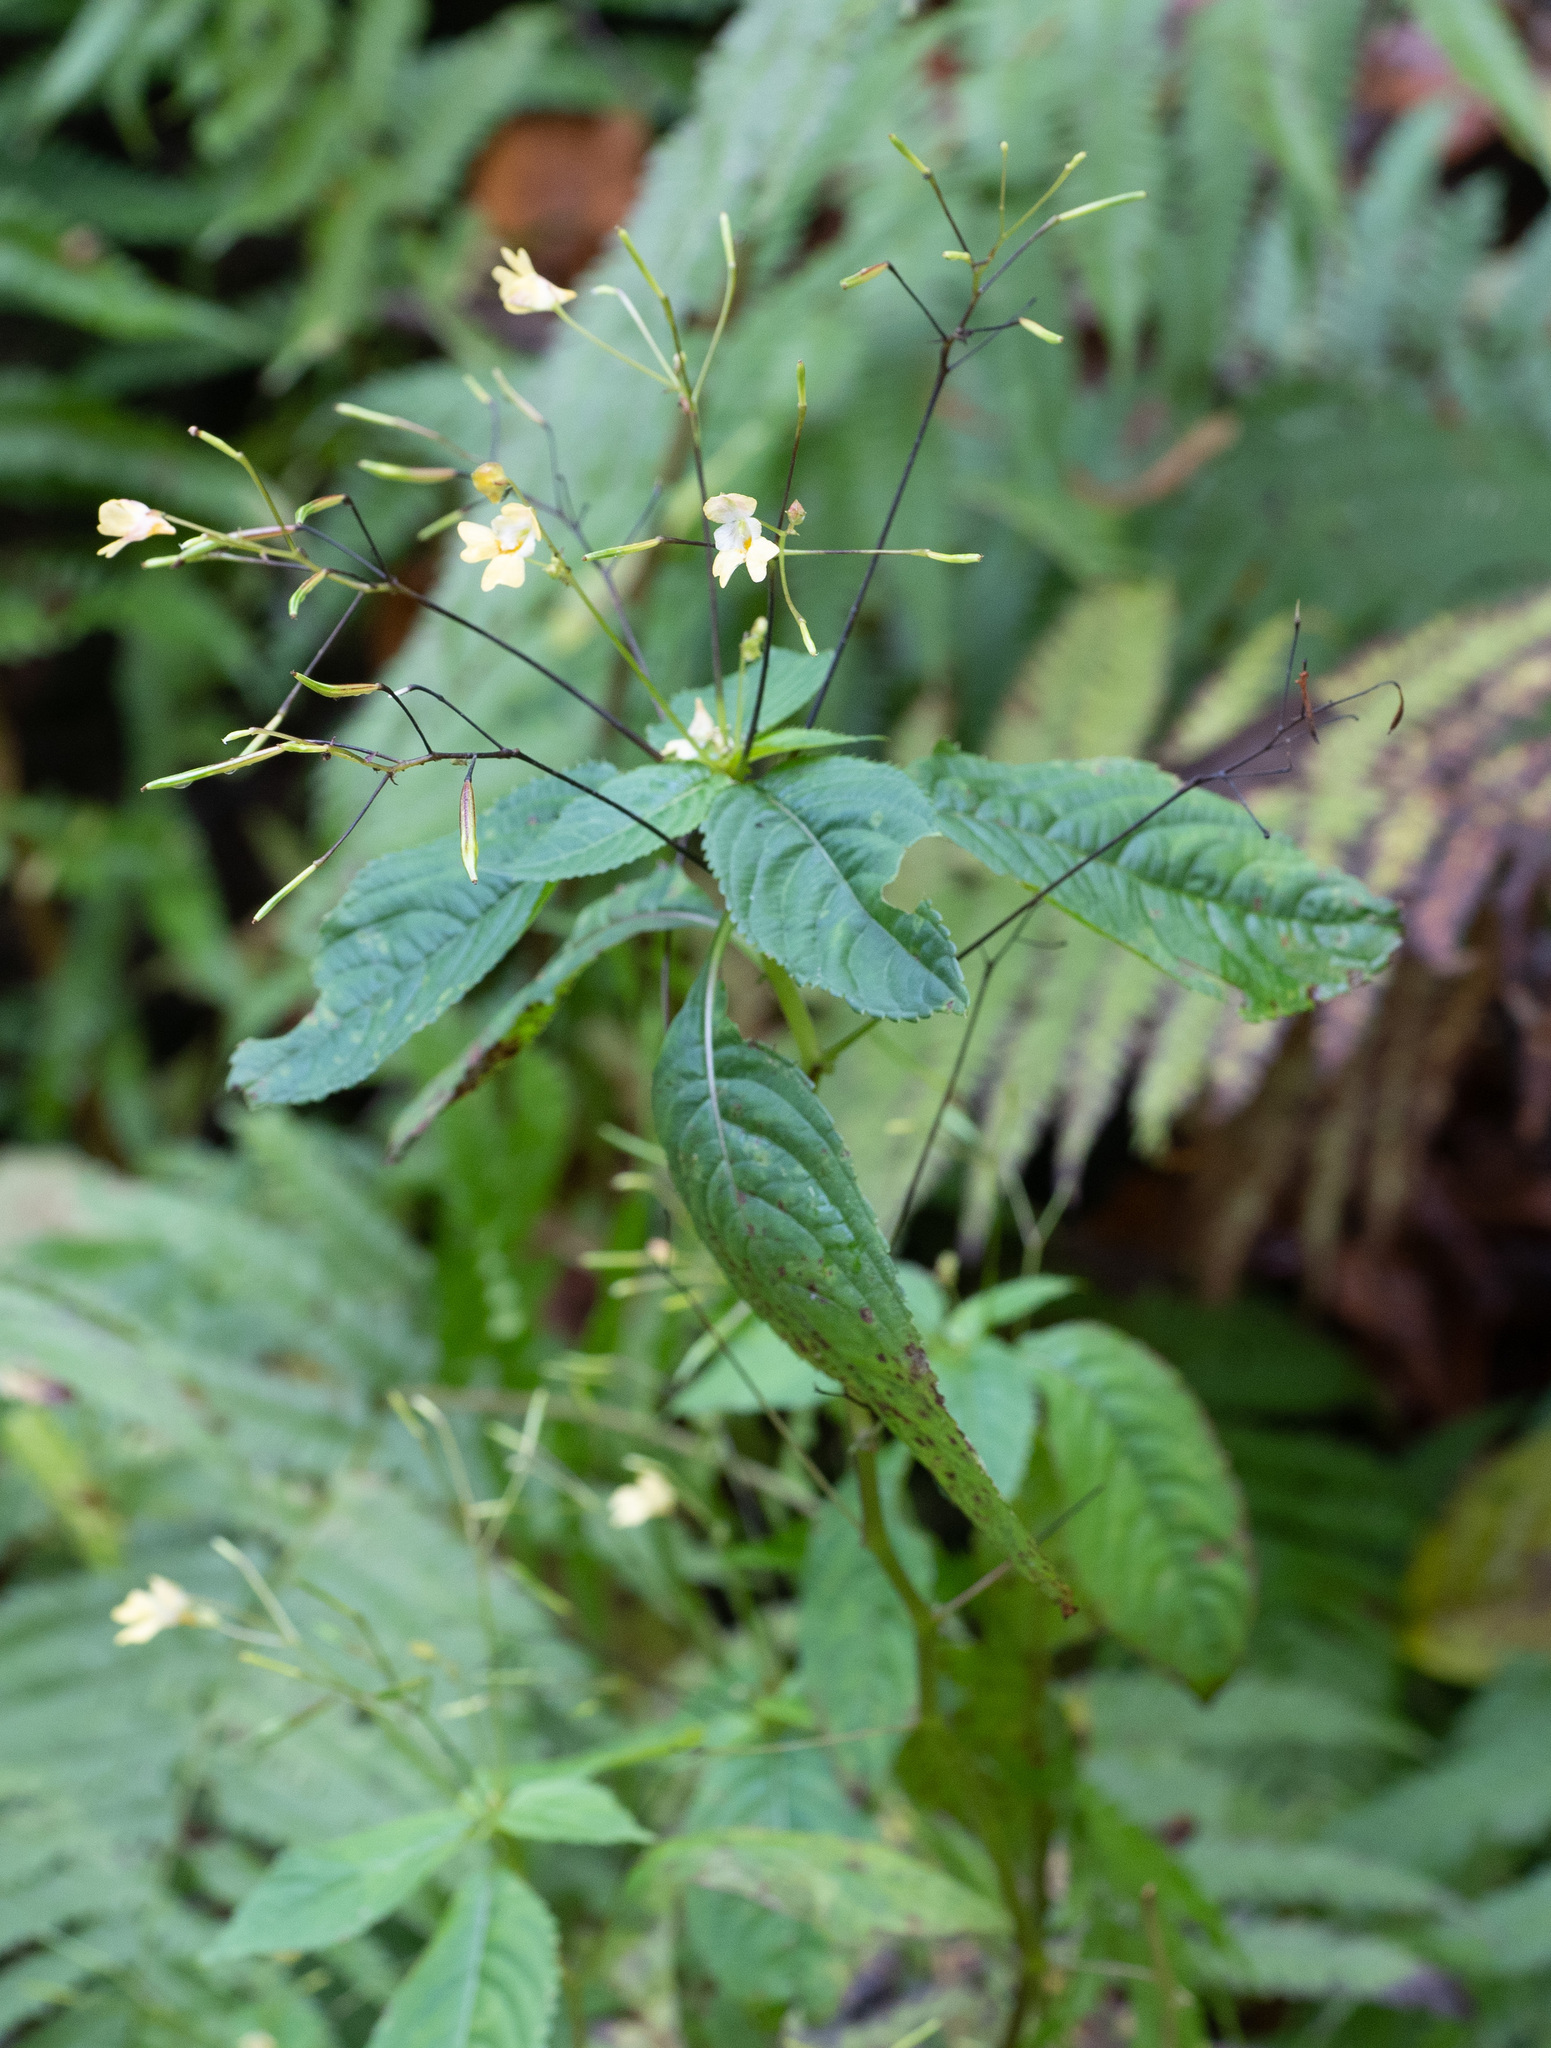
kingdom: Plantae
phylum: Tracheophyta
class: Magnoliopsida
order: Ericales
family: Balsaminaceae
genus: Impatiens
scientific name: Impatiens parviflora
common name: Small balsam
